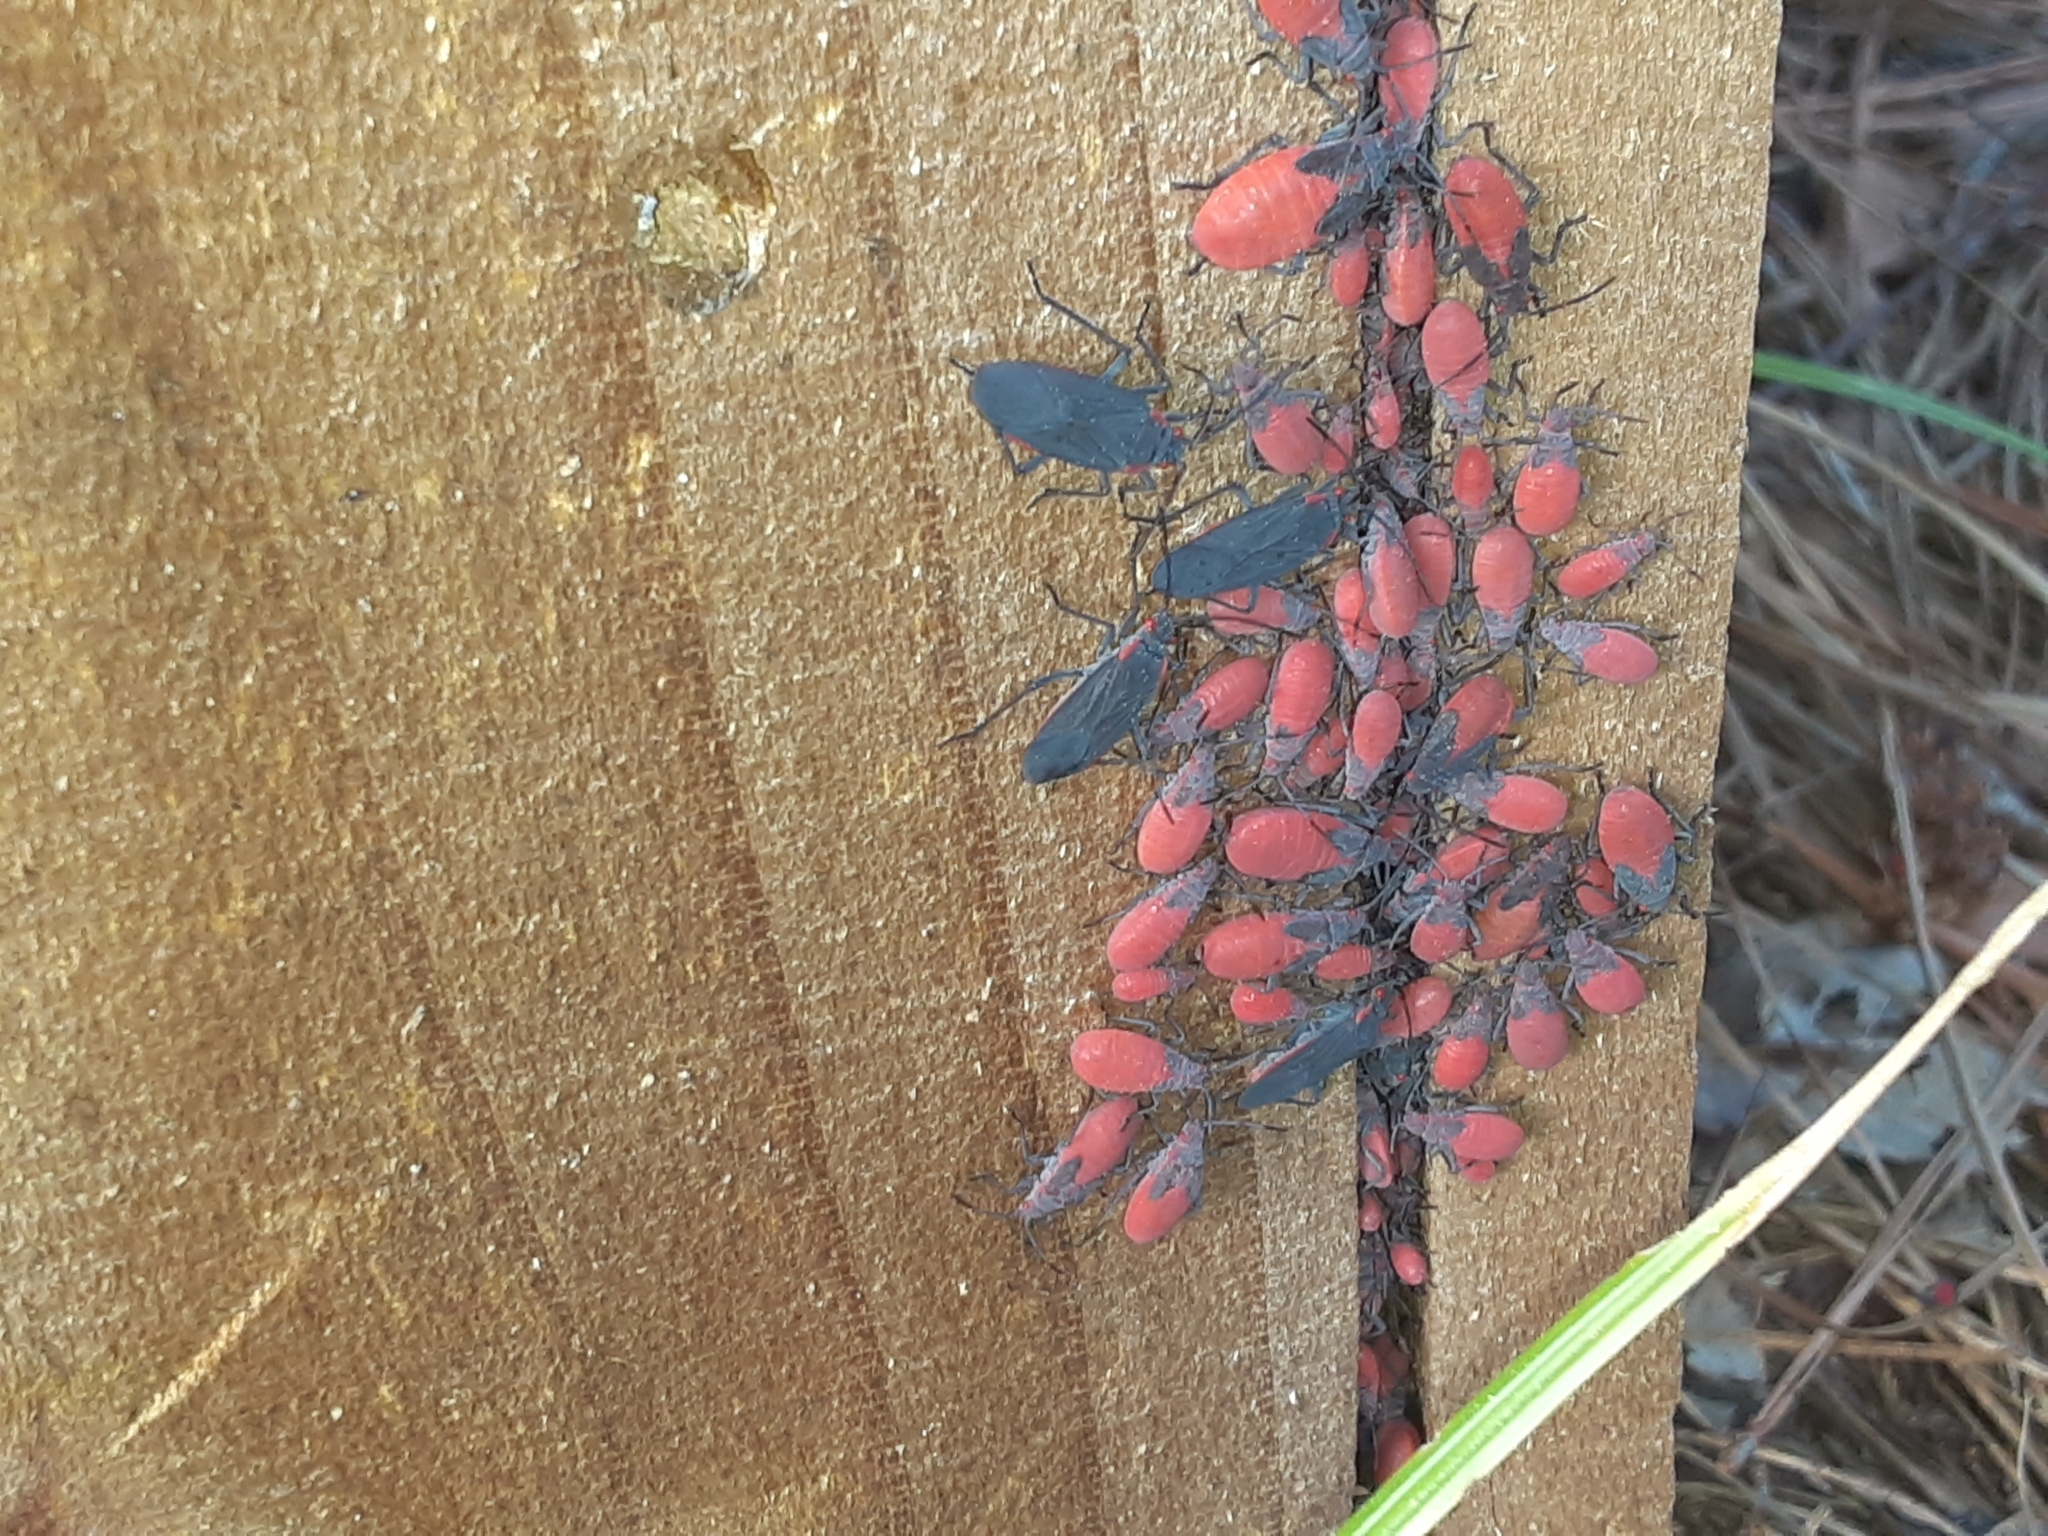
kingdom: Animalia
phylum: Arthropoda
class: Insecta
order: Hemiptera
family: Rhopalidae
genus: Jadera
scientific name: Jadera haematoloma
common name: Red-shouldered bug
